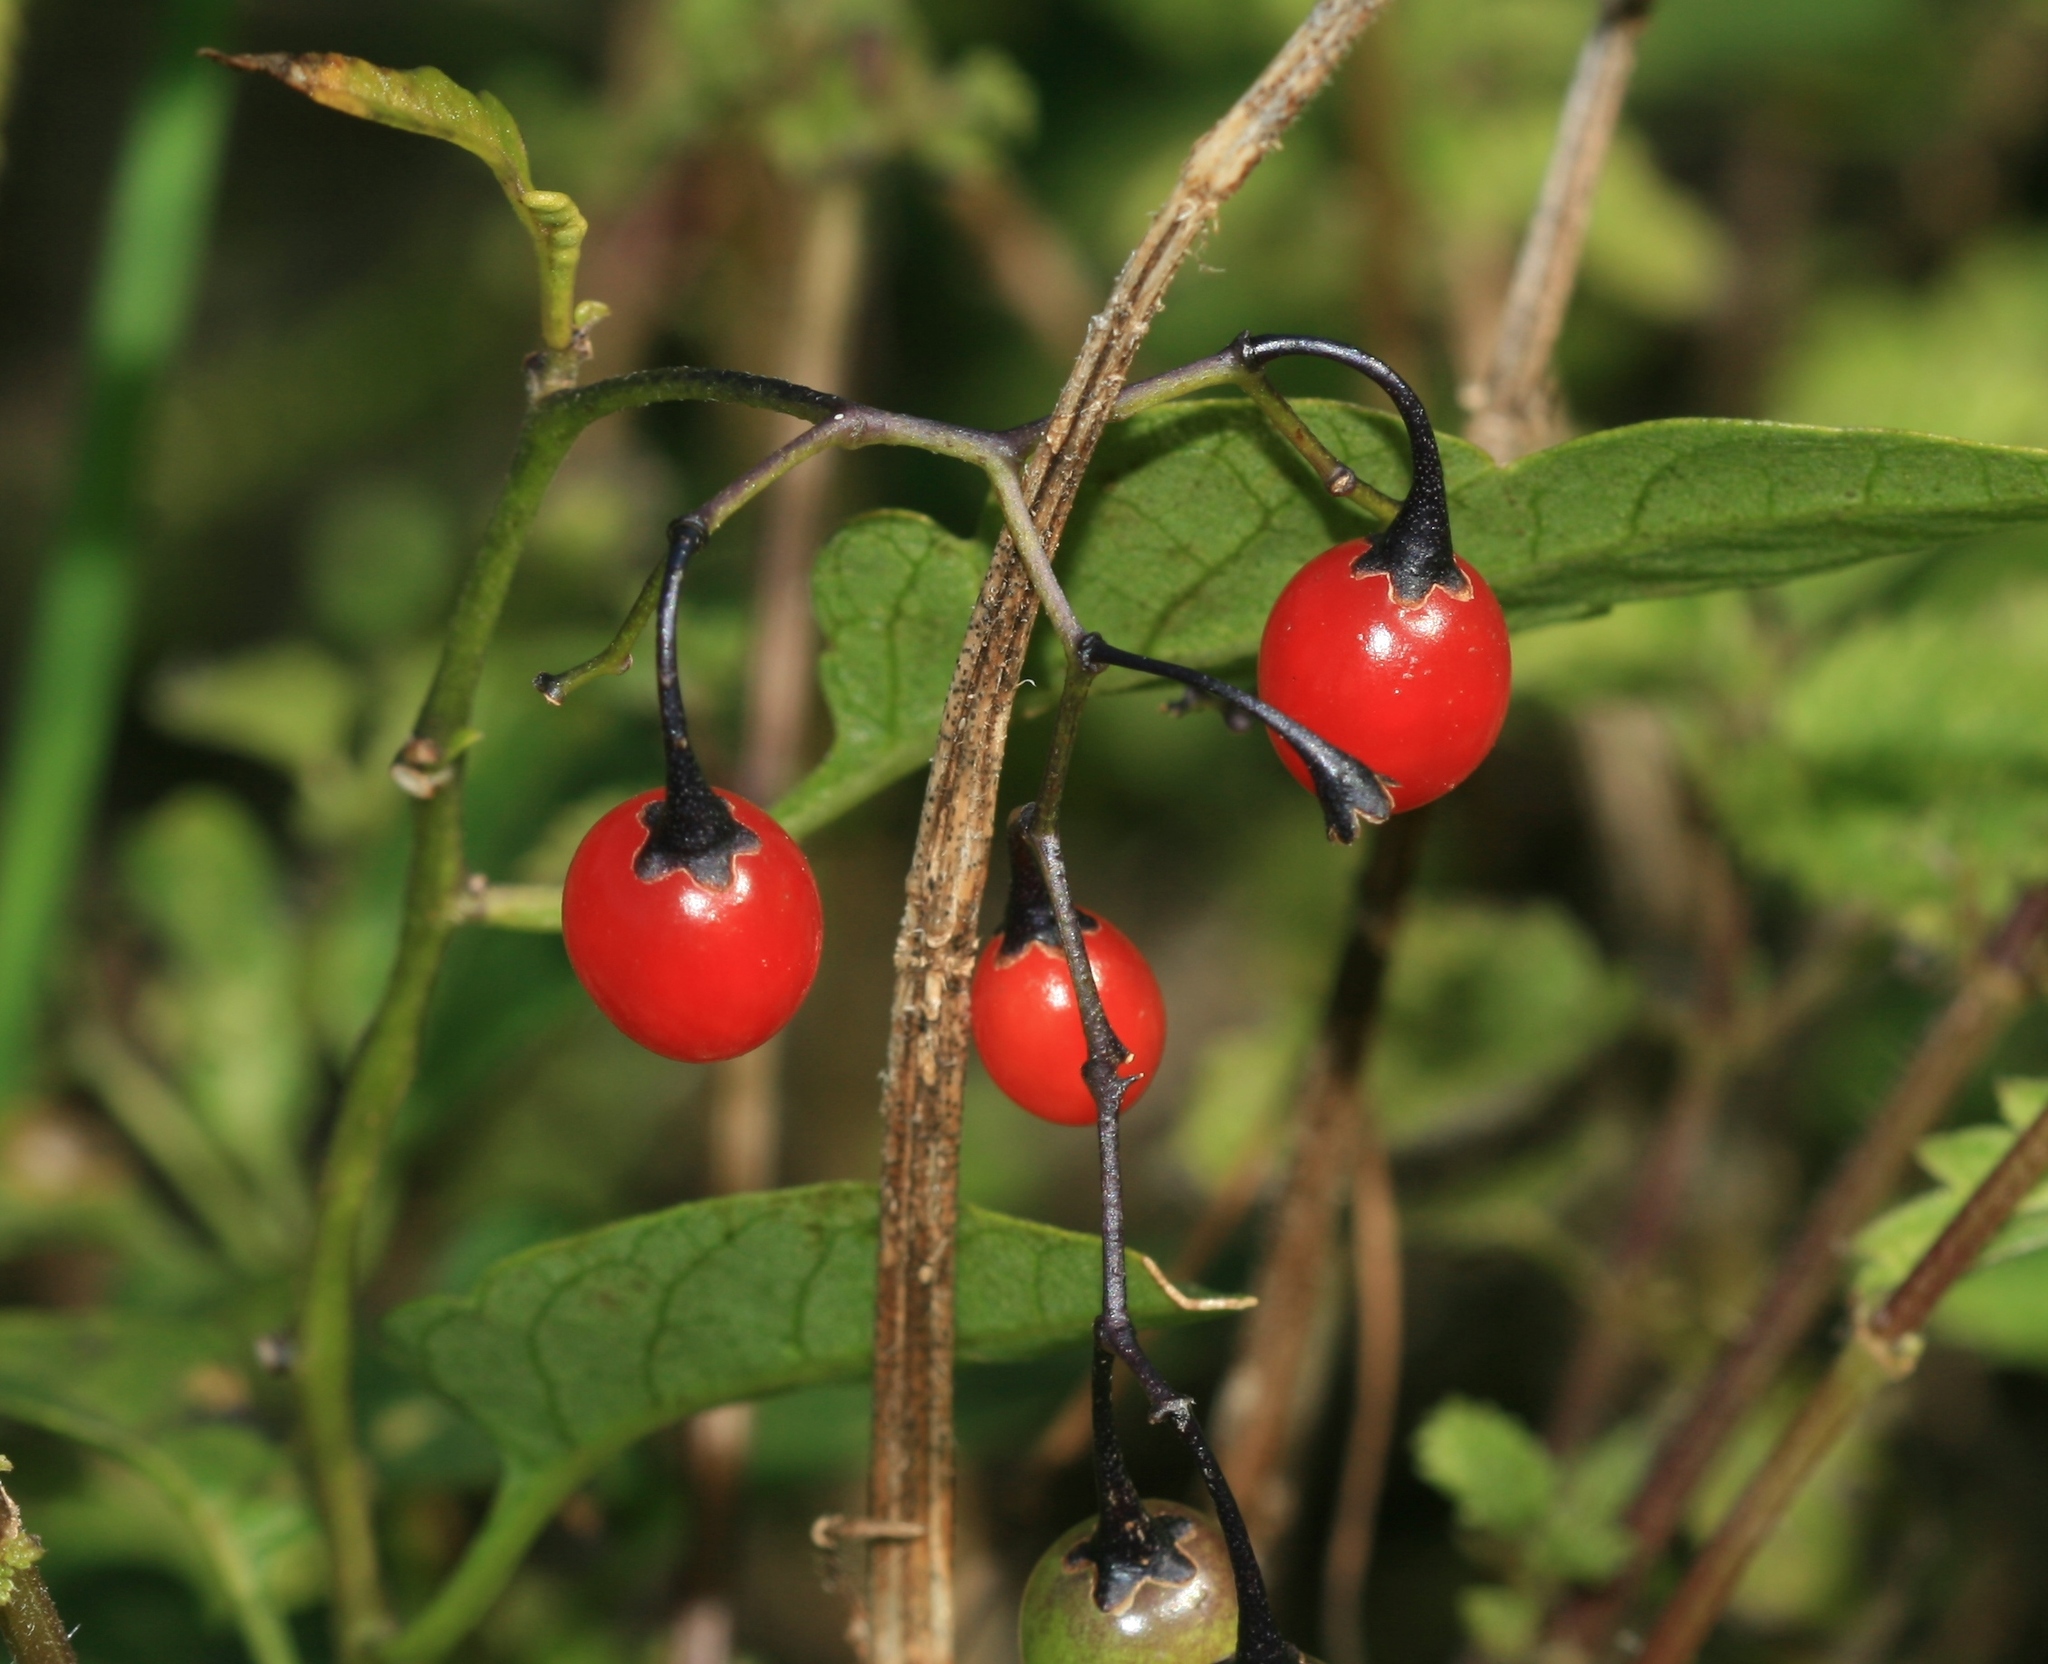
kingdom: Plantae
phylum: Tracheophyta
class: Magnoliopsida
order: Solanales
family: Solanaceae
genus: Solanum
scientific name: Solanum dulcamara
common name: Climbing nightshade
